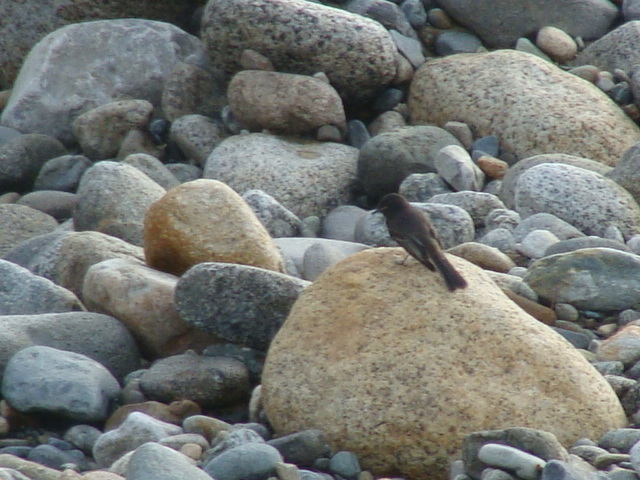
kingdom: Animalia
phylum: Chordata
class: Aves
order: Passeriformes
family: Tyrannidae
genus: Sayornis
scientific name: Sayornis nigricans
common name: Black phoebe
